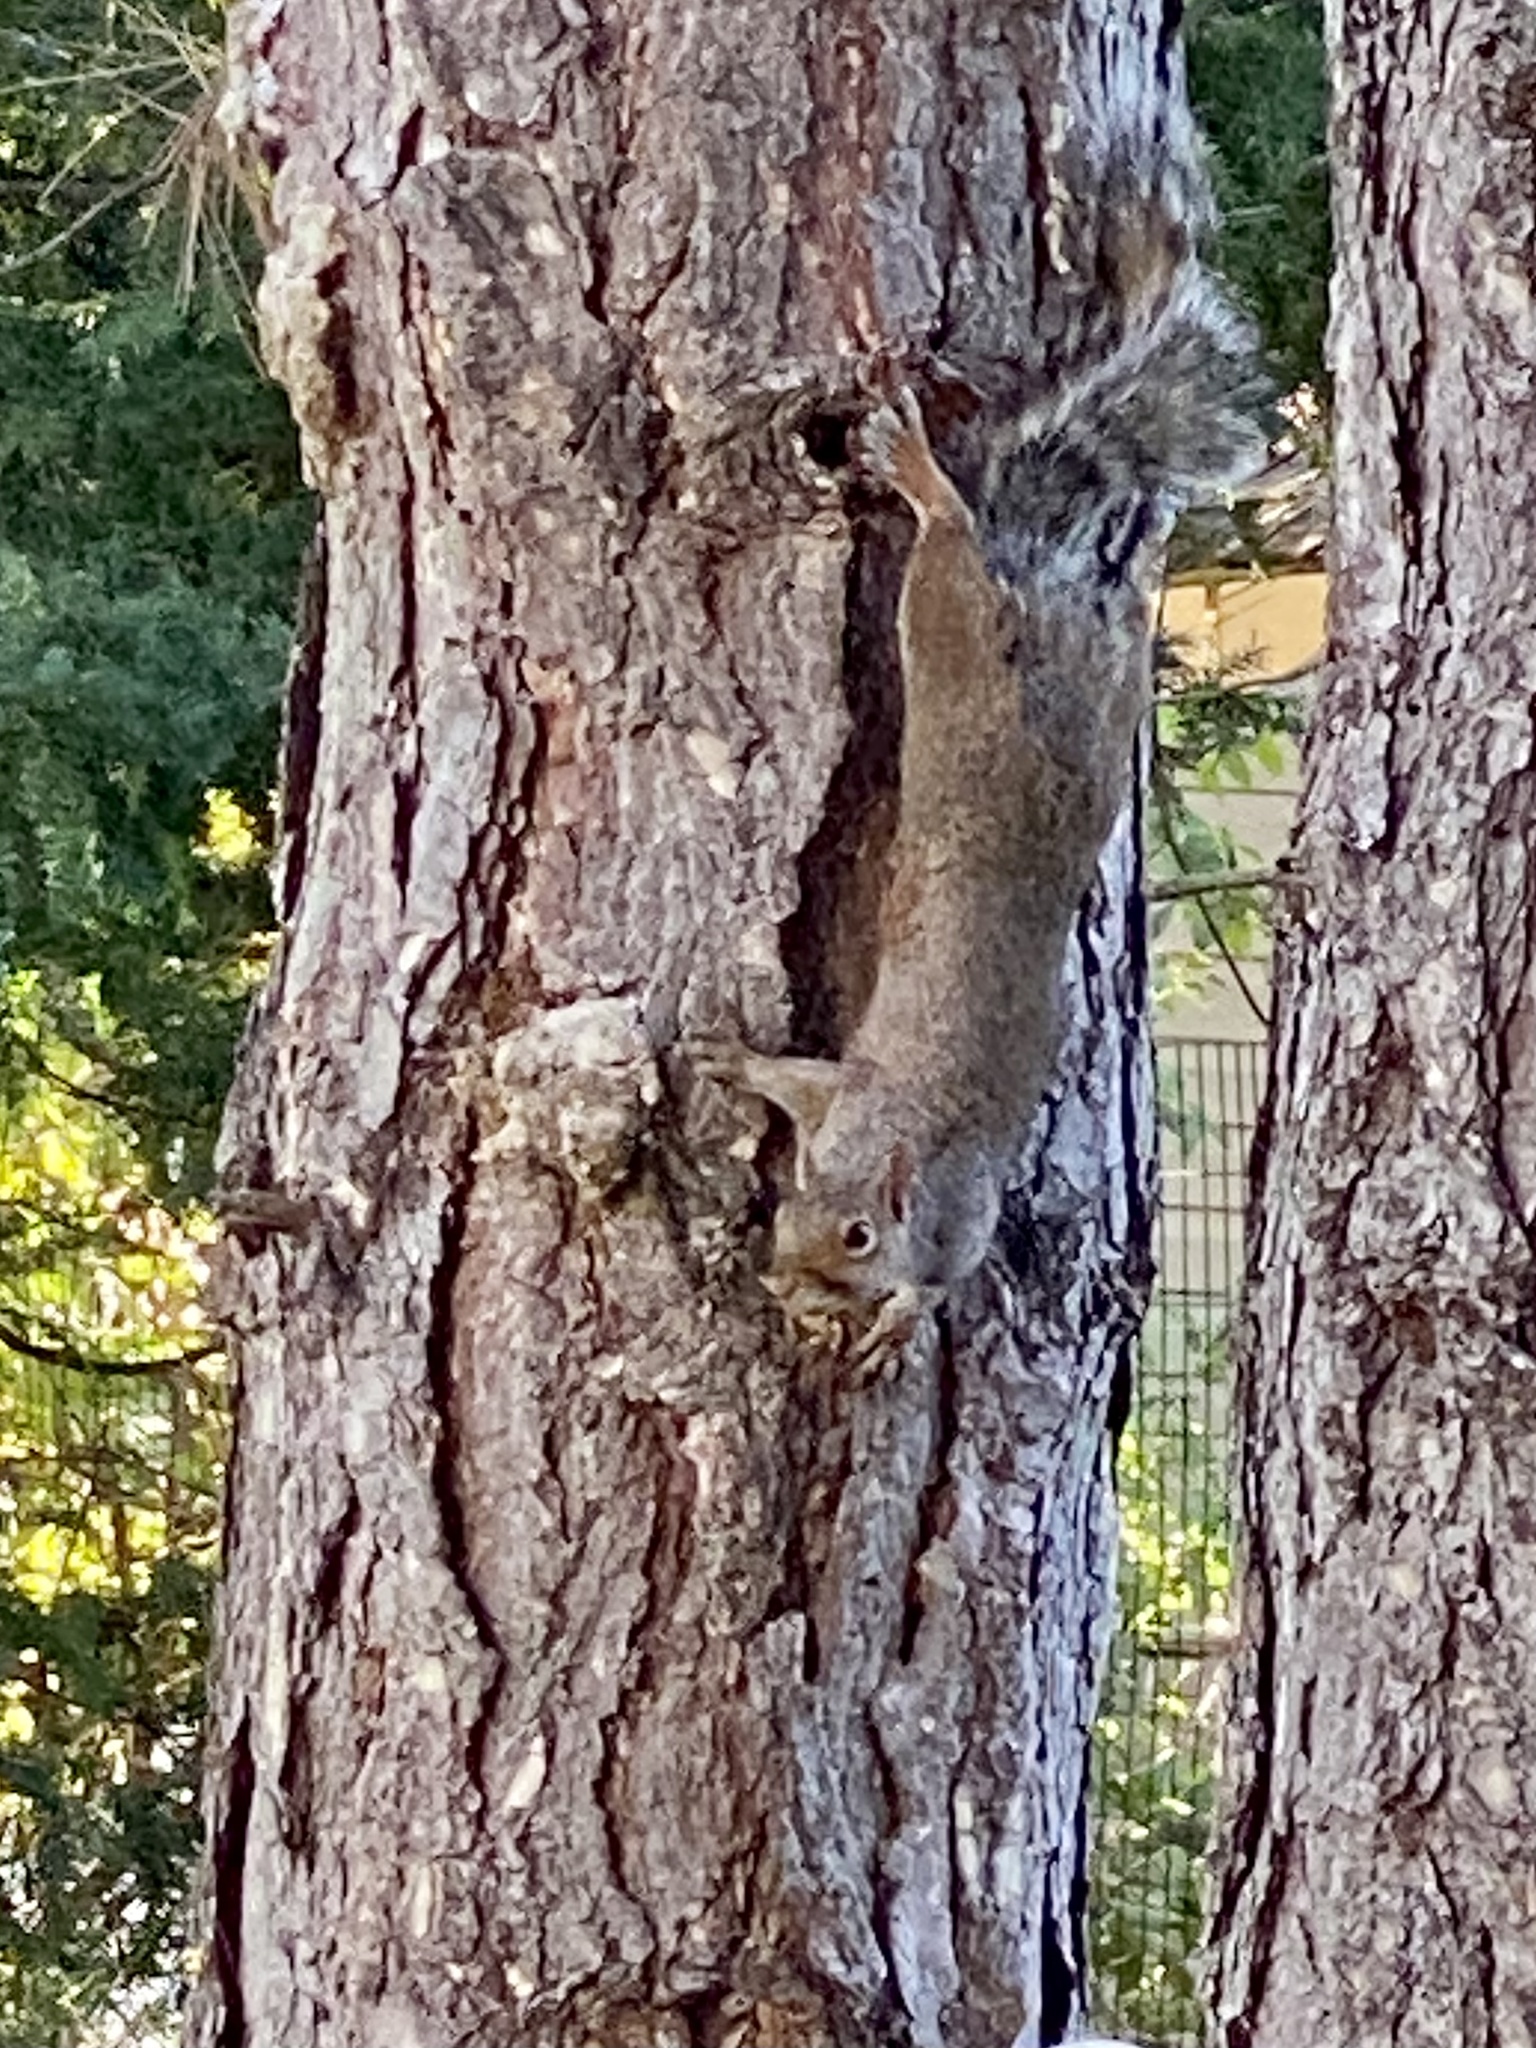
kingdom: Animalia
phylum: Chordata
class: Mammalia
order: Rodentia
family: Sciuridae
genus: Sciurus
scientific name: Sciurus carolinensis
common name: Eastern gray squirrel
